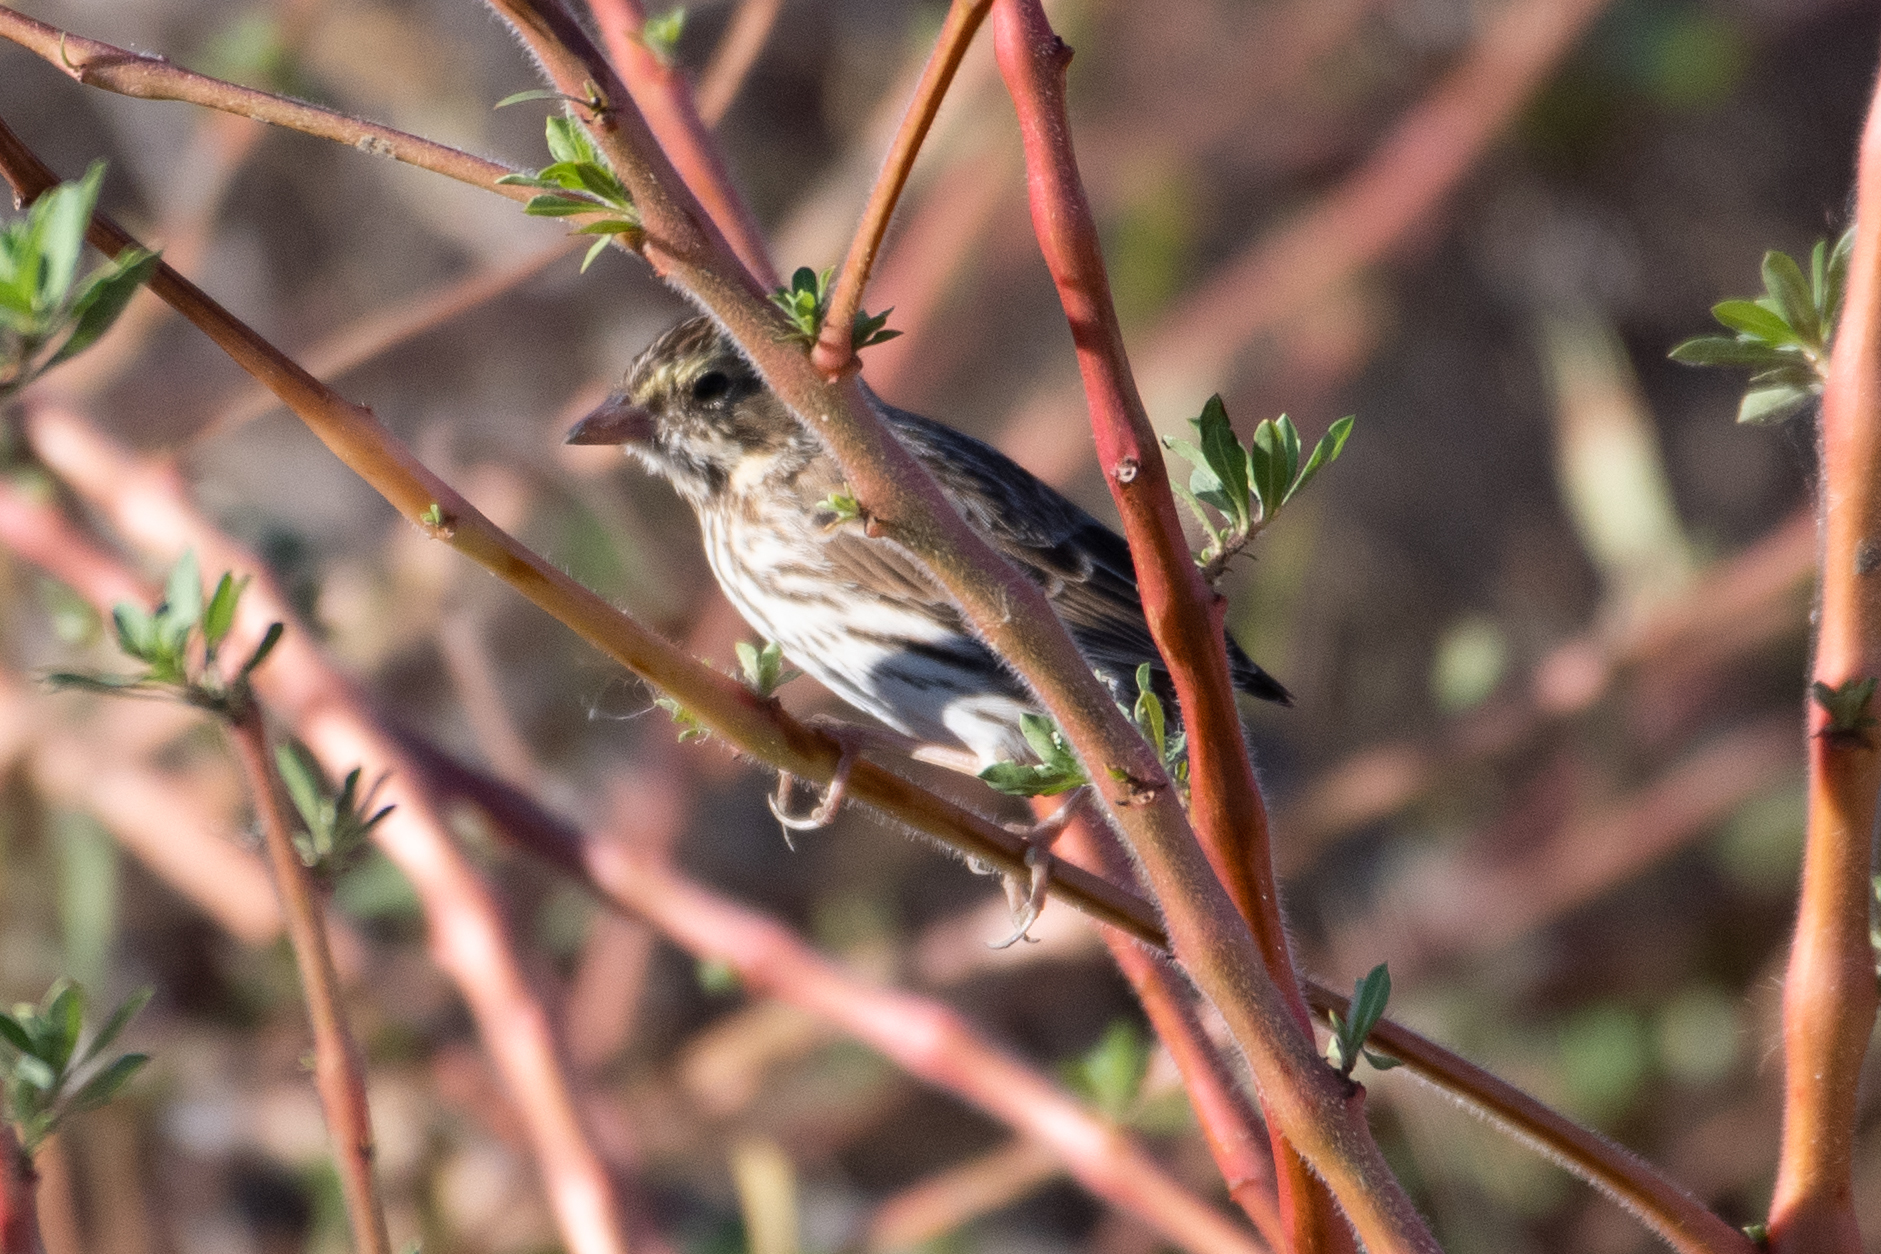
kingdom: Animalia
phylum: Chordata
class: Aves
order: Passeriformes
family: Passerellidae
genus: Passerculus
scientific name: Passerculus sandwichensis
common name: Savannah sparrow
